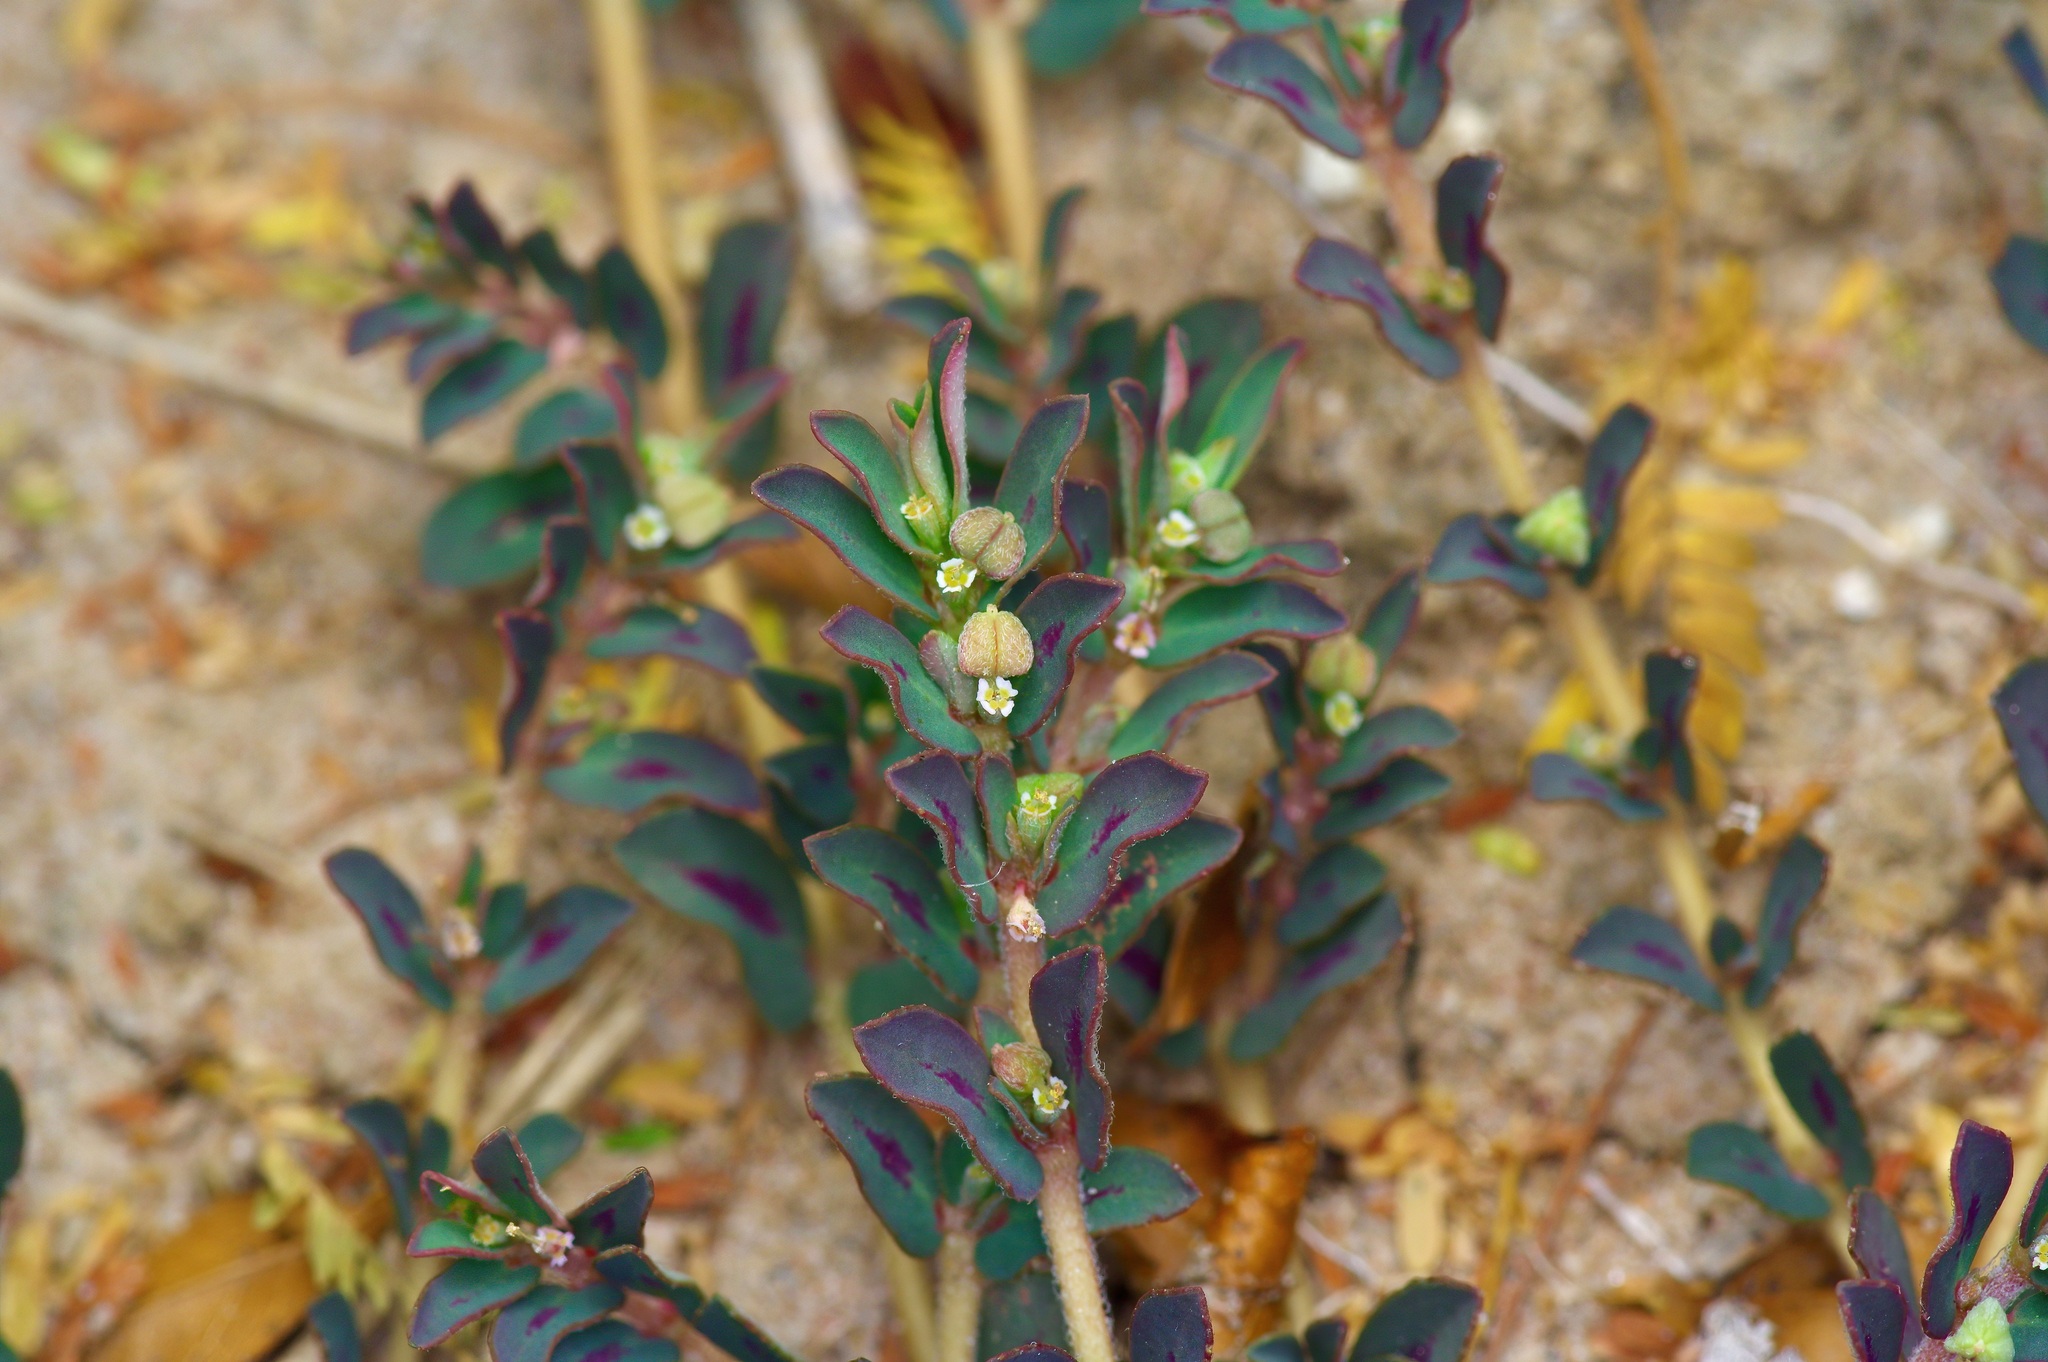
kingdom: Plantae
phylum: Tracheophyta
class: Magnoliopsida
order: Malpighiales
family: Euphorbiaceae
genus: Euphorbia
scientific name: Euphorbia maculata
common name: Spotted spurge
